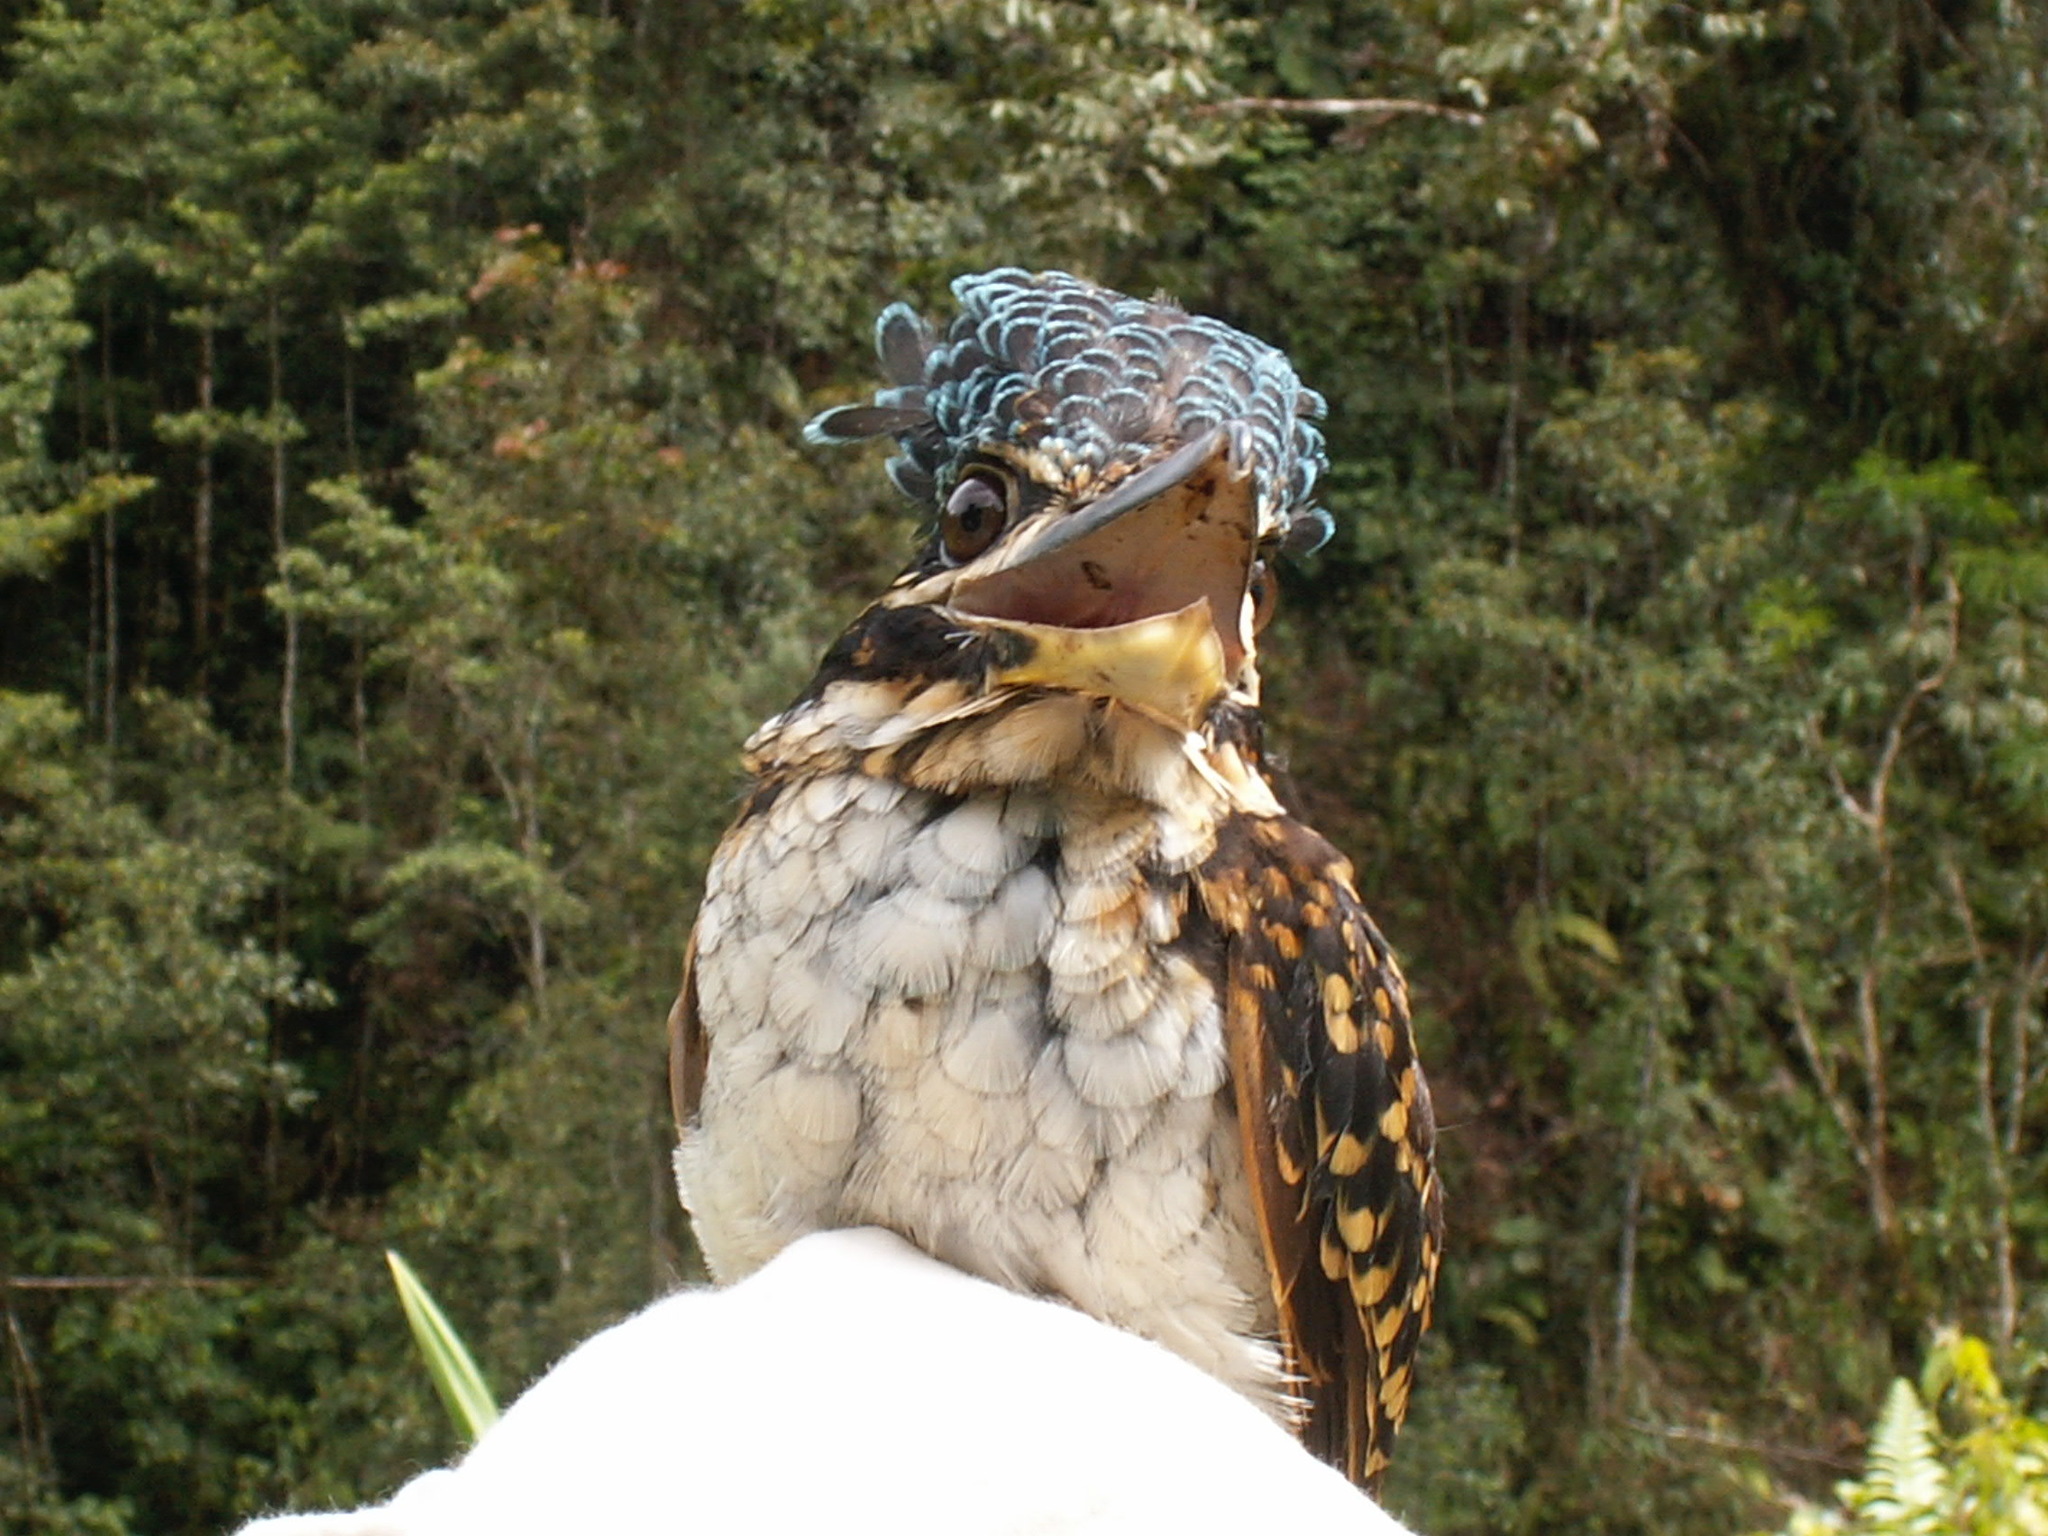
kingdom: Animalia
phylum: Chordata
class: Aves
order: Coraciiformes
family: Alcedinidae
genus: Melidora
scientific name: Melidora macrorrhina
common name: Hook-billed kingfisher
